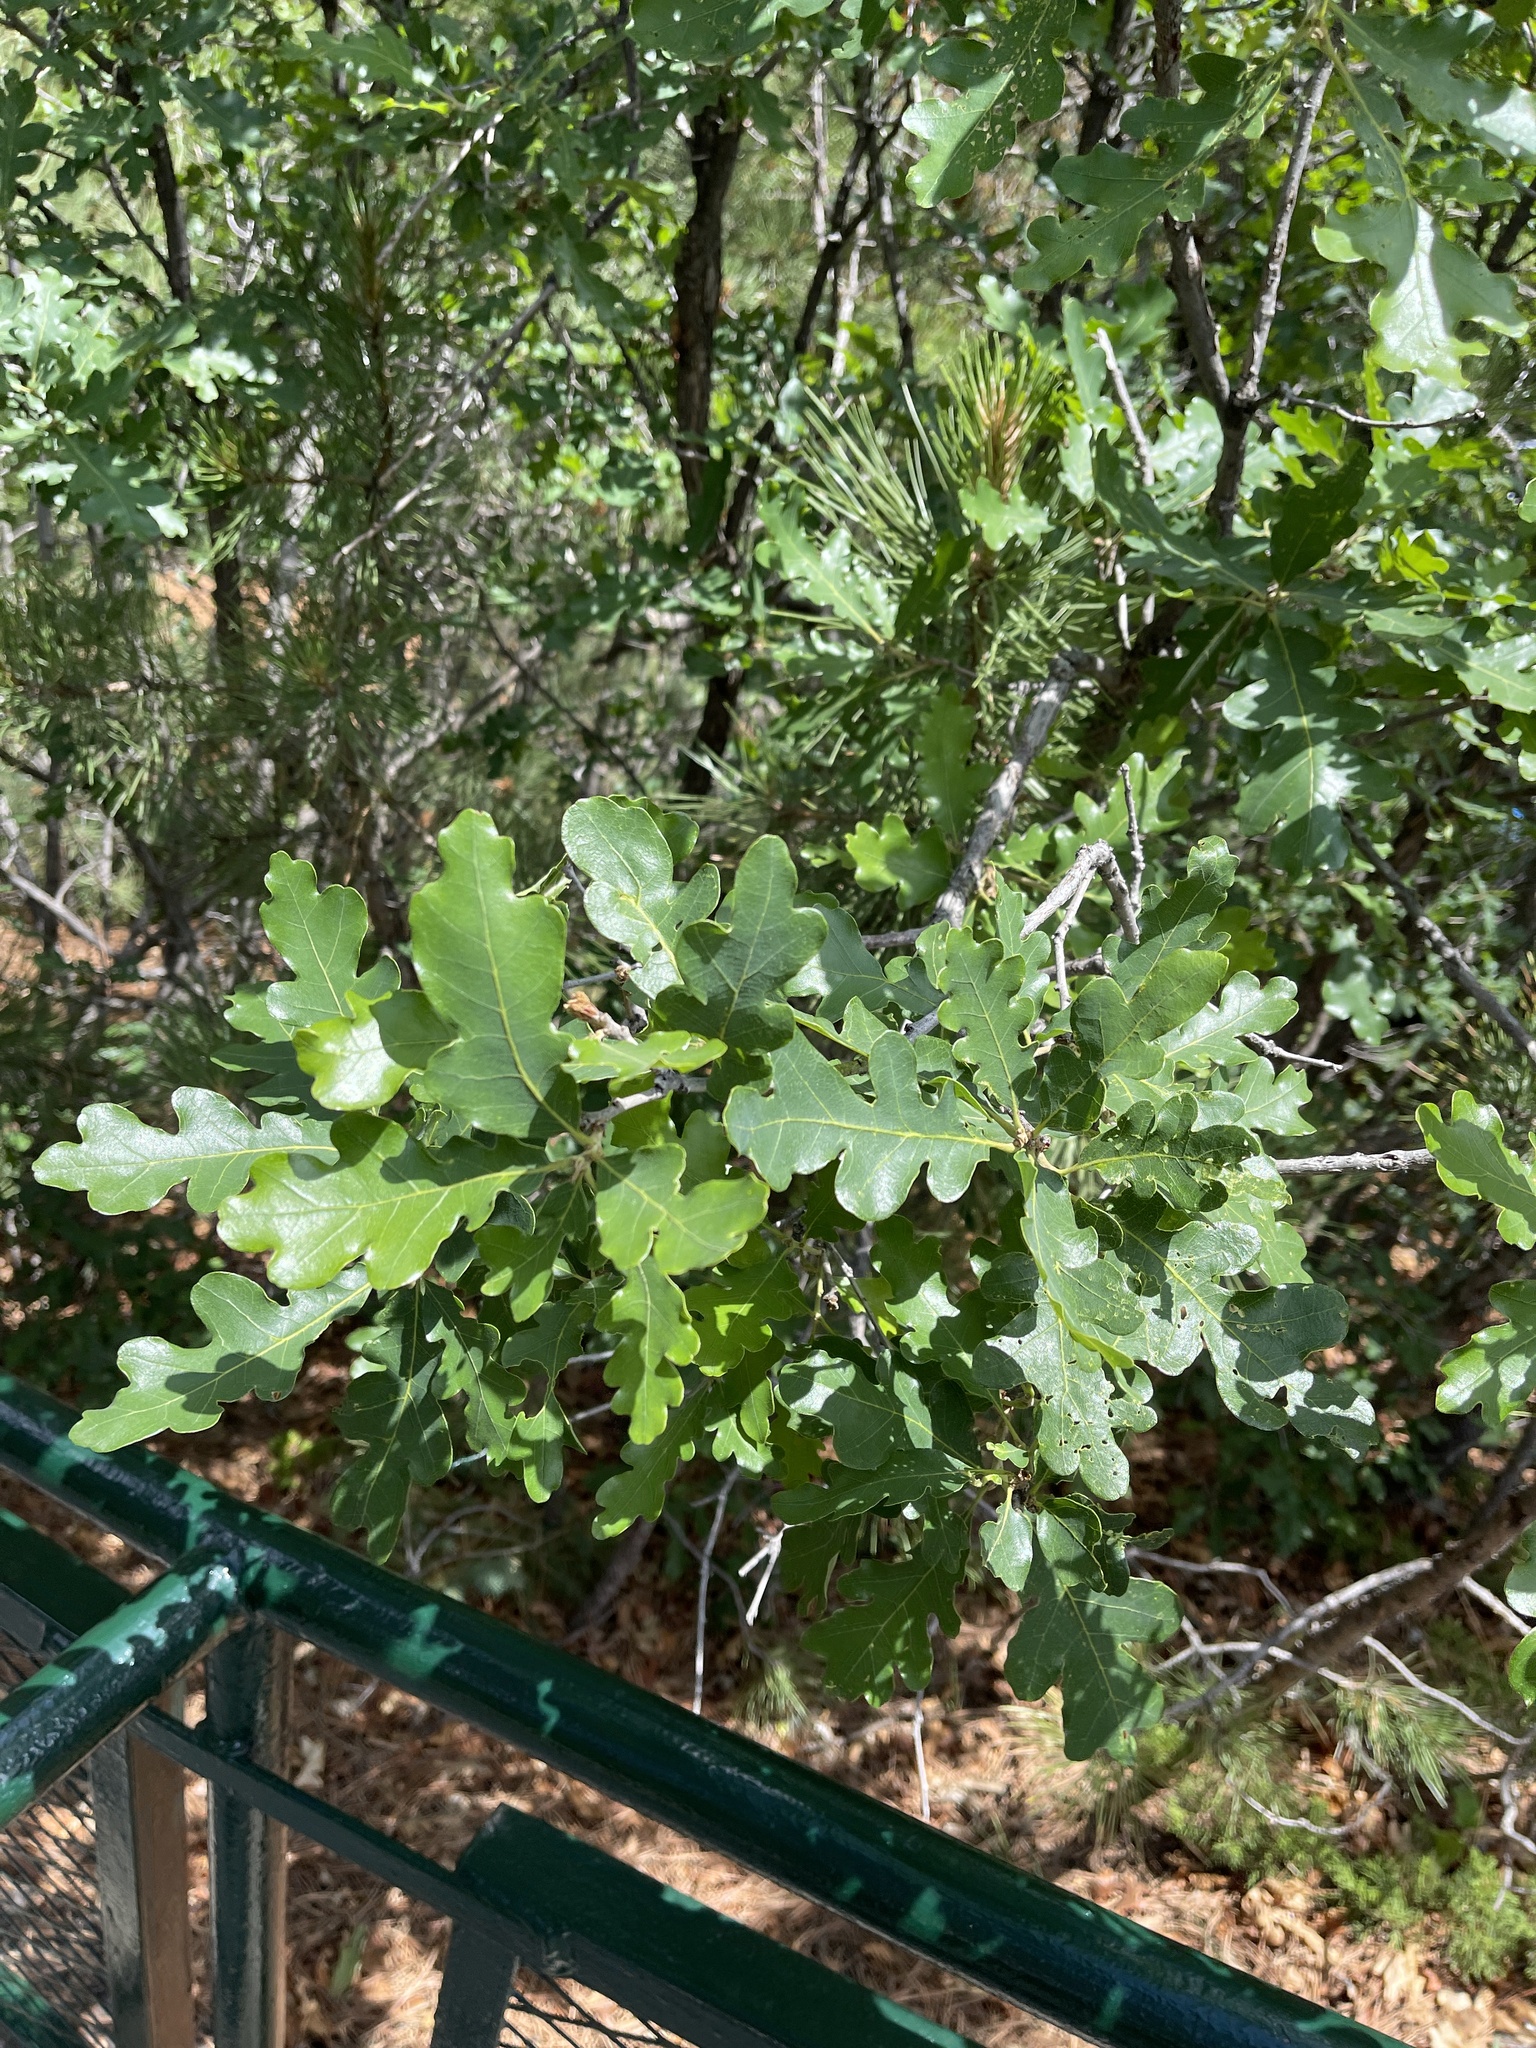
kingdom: Plantae
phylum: Tracheophyta
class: Magnoliopsida
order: Fagales
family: Fagaceae
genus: Quercus
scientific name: Quercus gambelii
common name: Gambel oak
